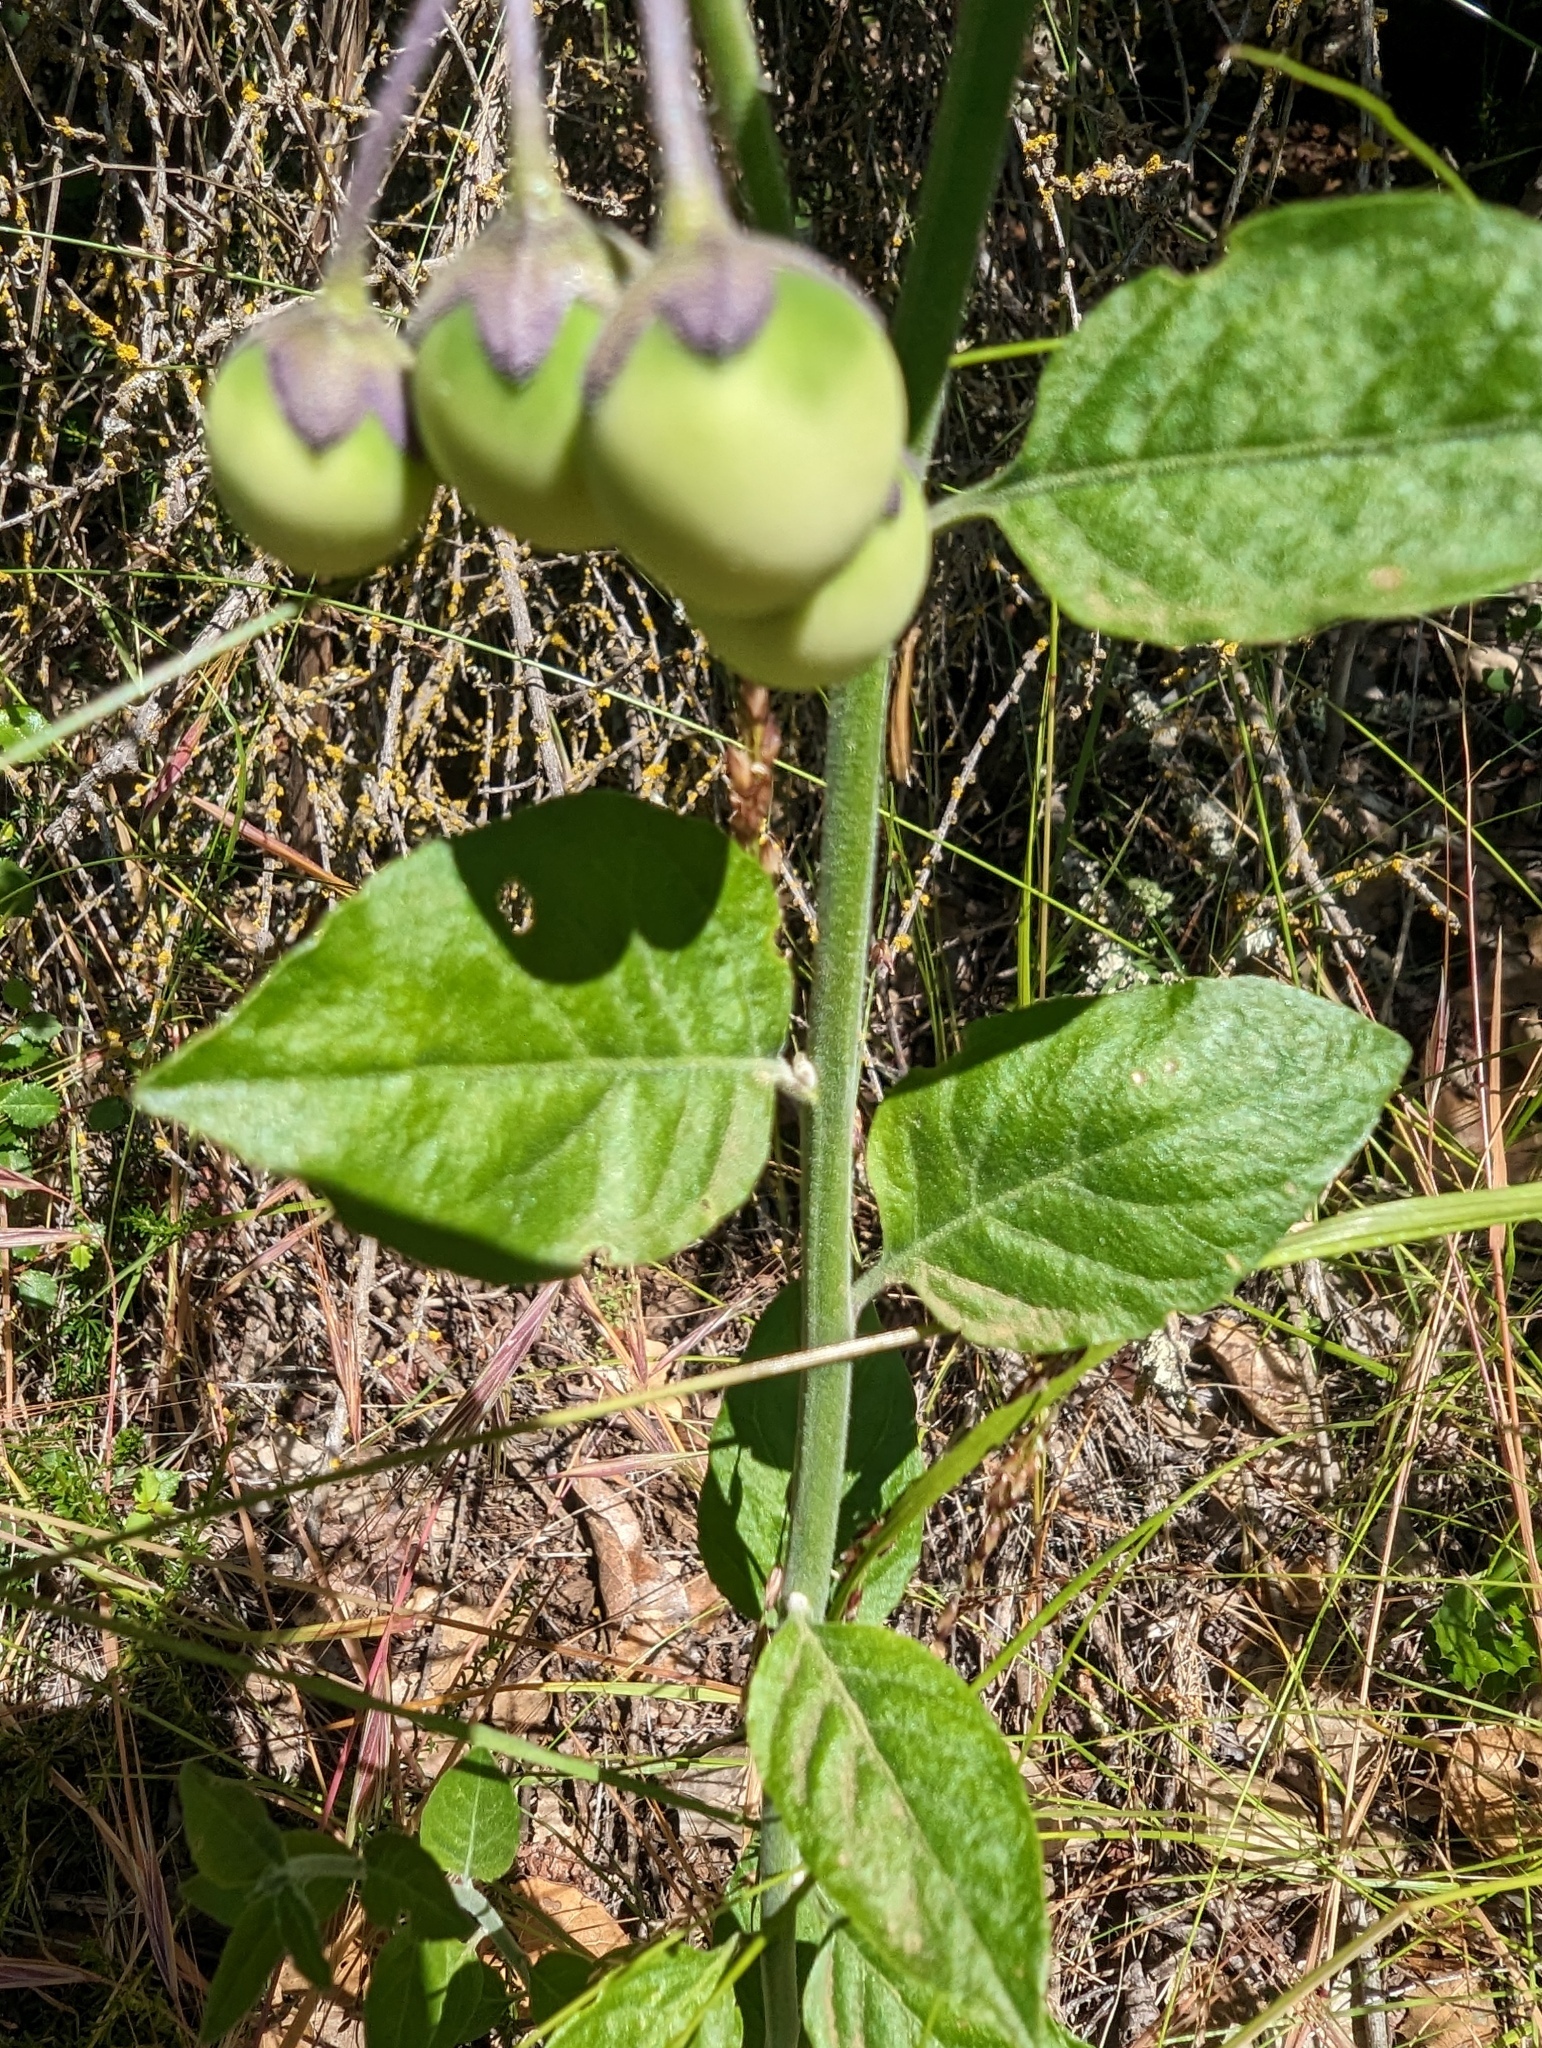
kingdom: Plantae
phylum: Tracheophyta
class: Magnoliopsida
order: Solanales
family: Solanaceae
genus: Solanum
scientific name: Solanum umbelliferum
